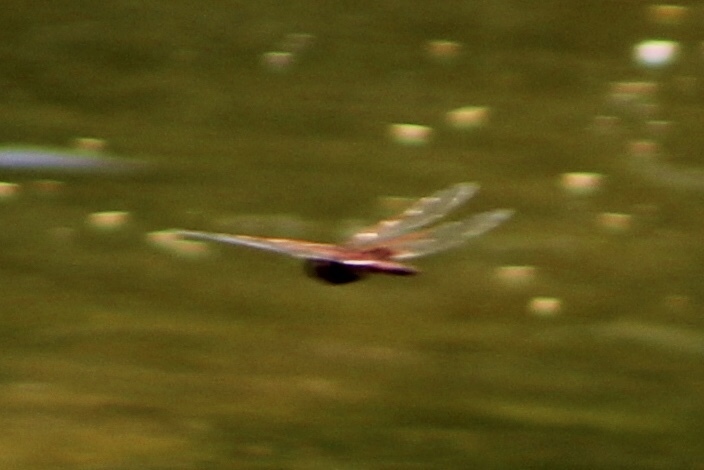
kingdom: Animalia
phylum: Arthropoda
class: Insecta
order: Odonata
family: Libellulidae
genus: Tramea
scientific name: Tramea onusta
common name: Red saddlebags
